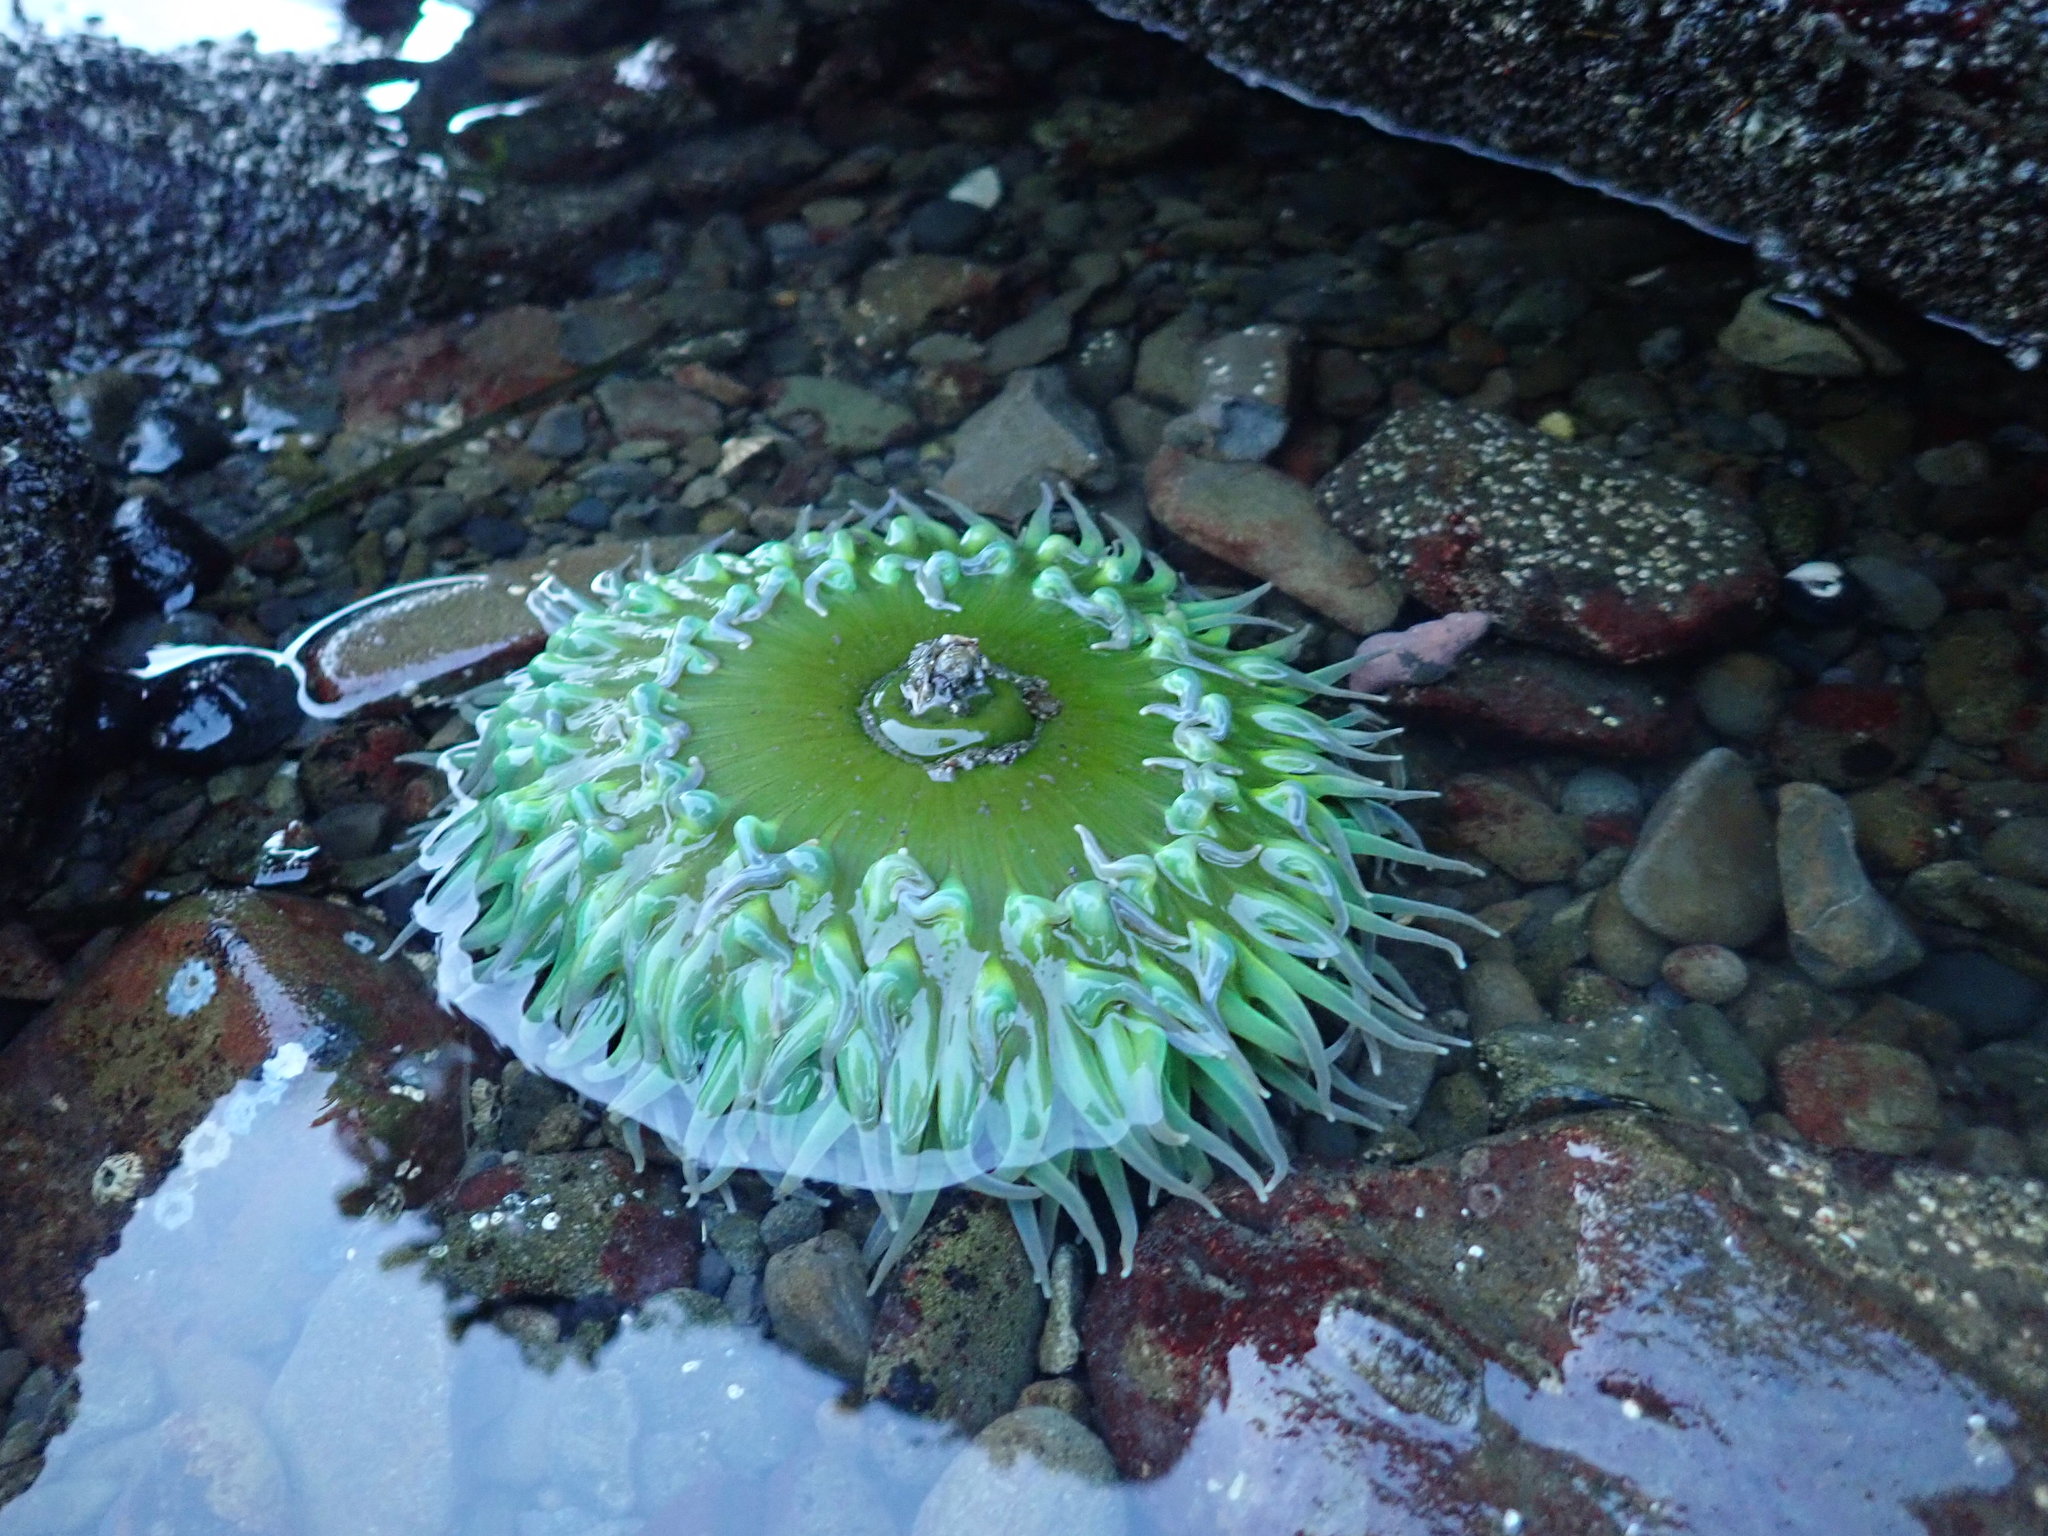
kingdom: Animalia
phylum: Cnidaria
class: Anthozoa
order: Actiniaria
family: Actiniidae
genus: Anthopleura
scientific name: Anthopleura xanthogrammica
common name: Giant green anemone
